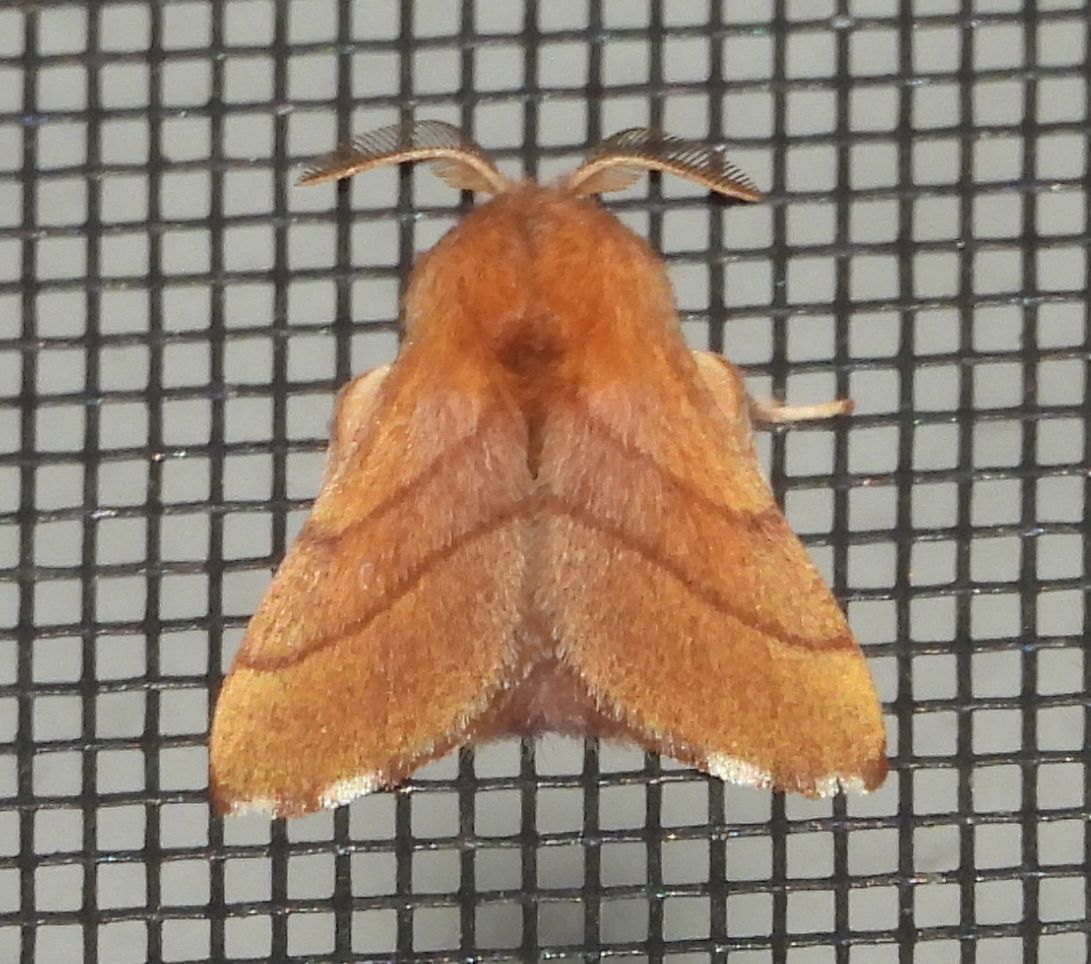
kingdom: Animalia
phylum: Arthropoda
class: Insecta
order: Lepidoptera
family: Lasiocampidae
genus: Malacosoma
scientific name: Malacosoma disstria
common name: Forest tent caterpillar
